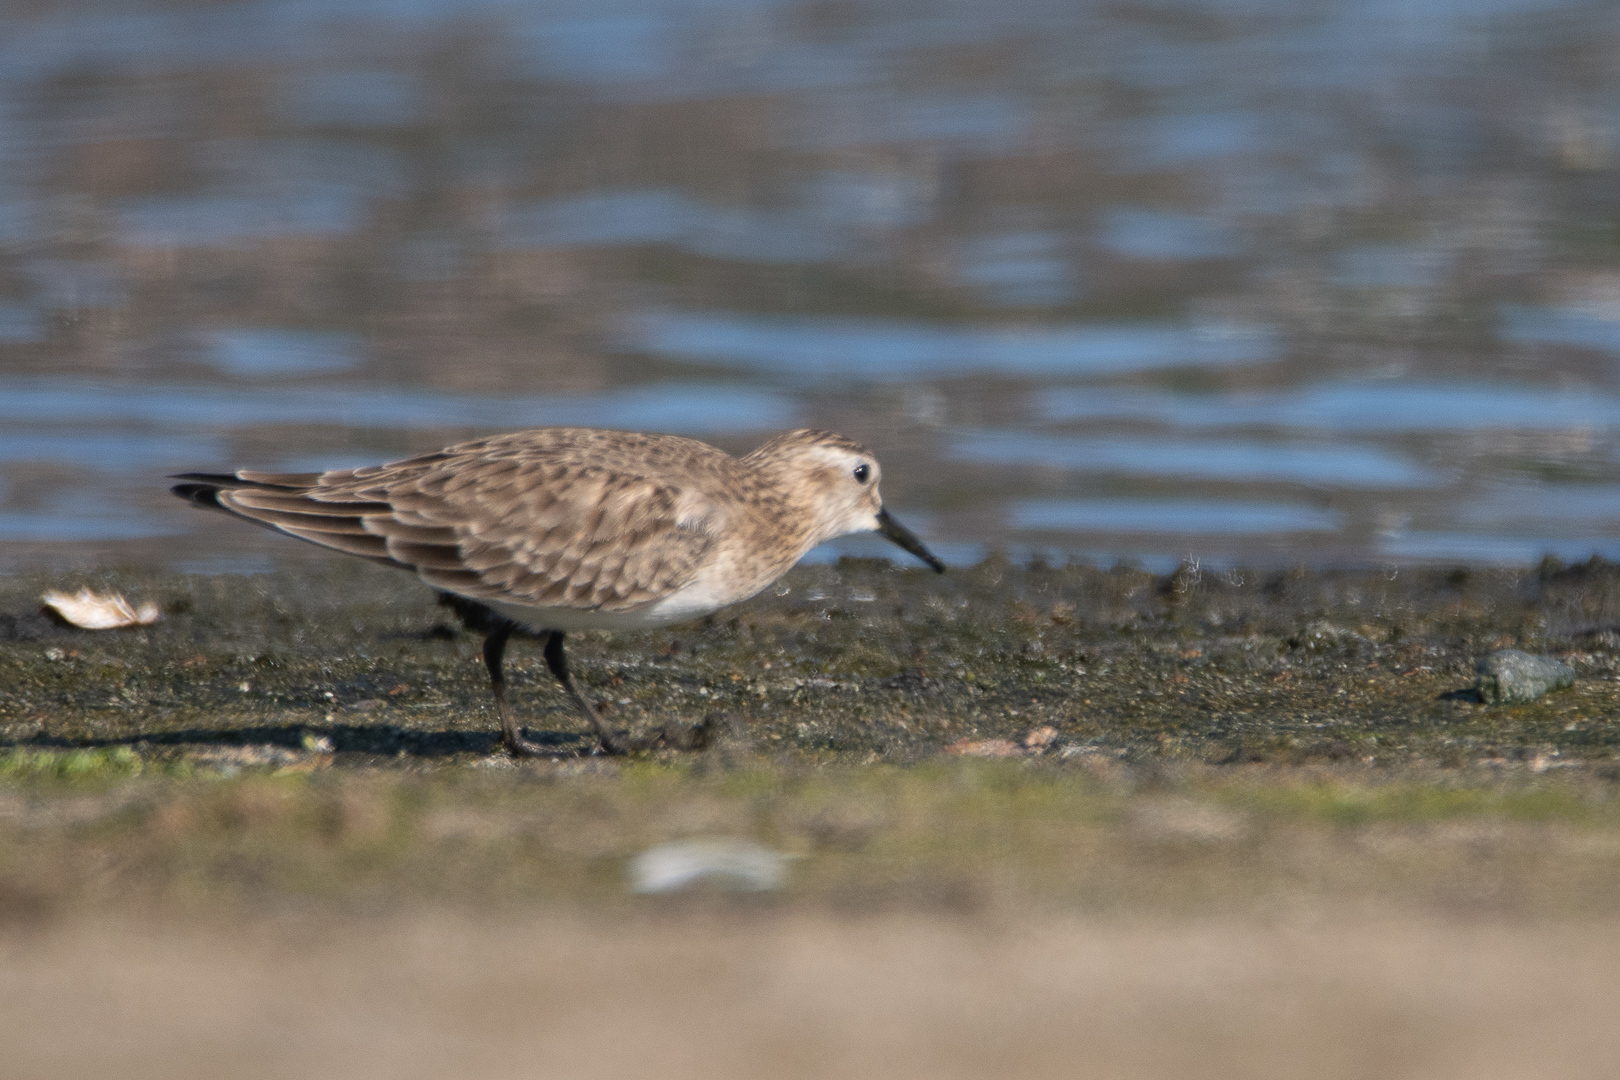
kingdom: Animalia
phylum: Chordata
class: Aves
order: Charadriiformes
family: Scolopacidae
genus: Calidris
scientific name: Calidris bairdii
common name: Baird's sandpiper
